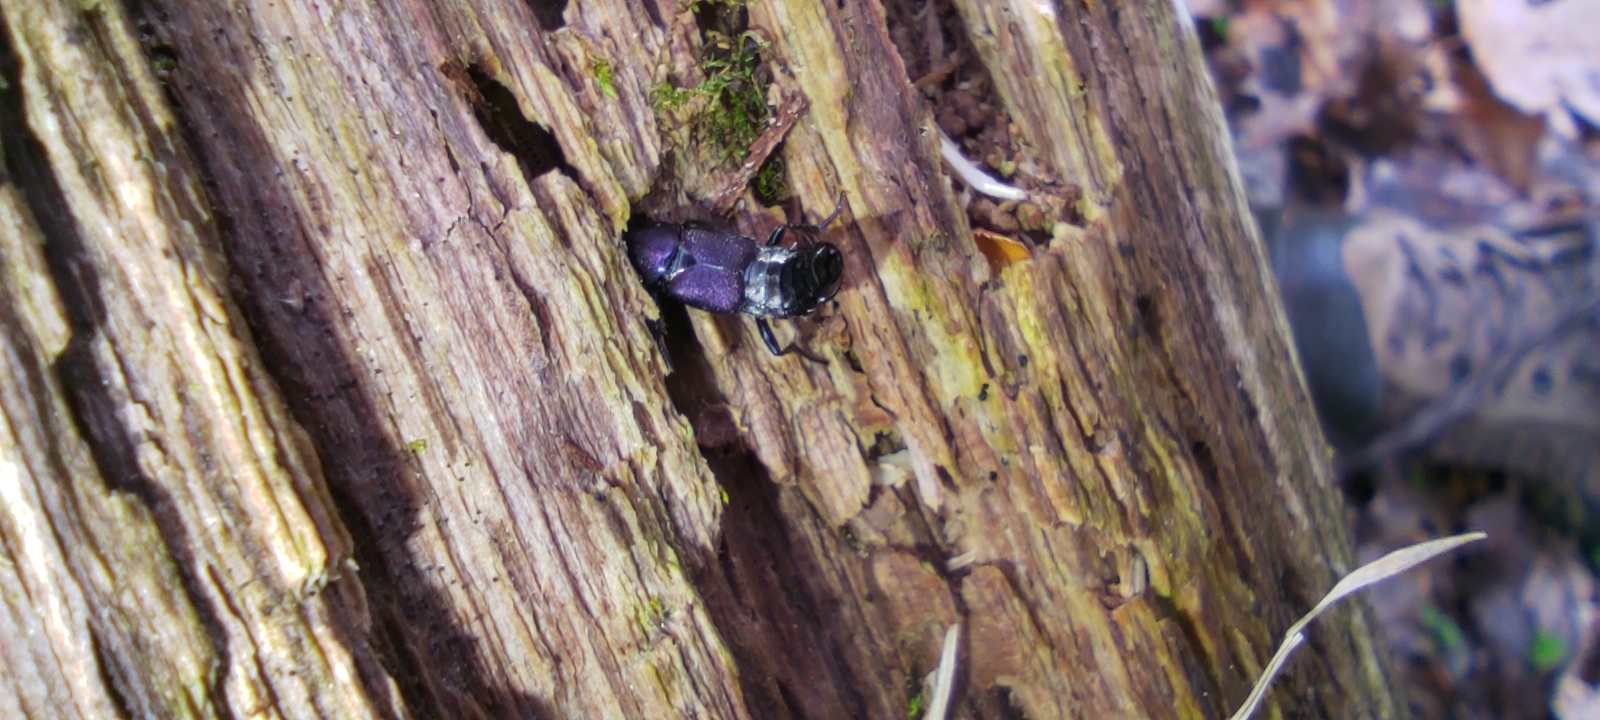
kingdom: Animalia
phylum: Arthropoda
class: Insecta
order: Coleoptera
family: Staphylinidae
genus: Platydracus
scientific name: Platydracus violaceus
